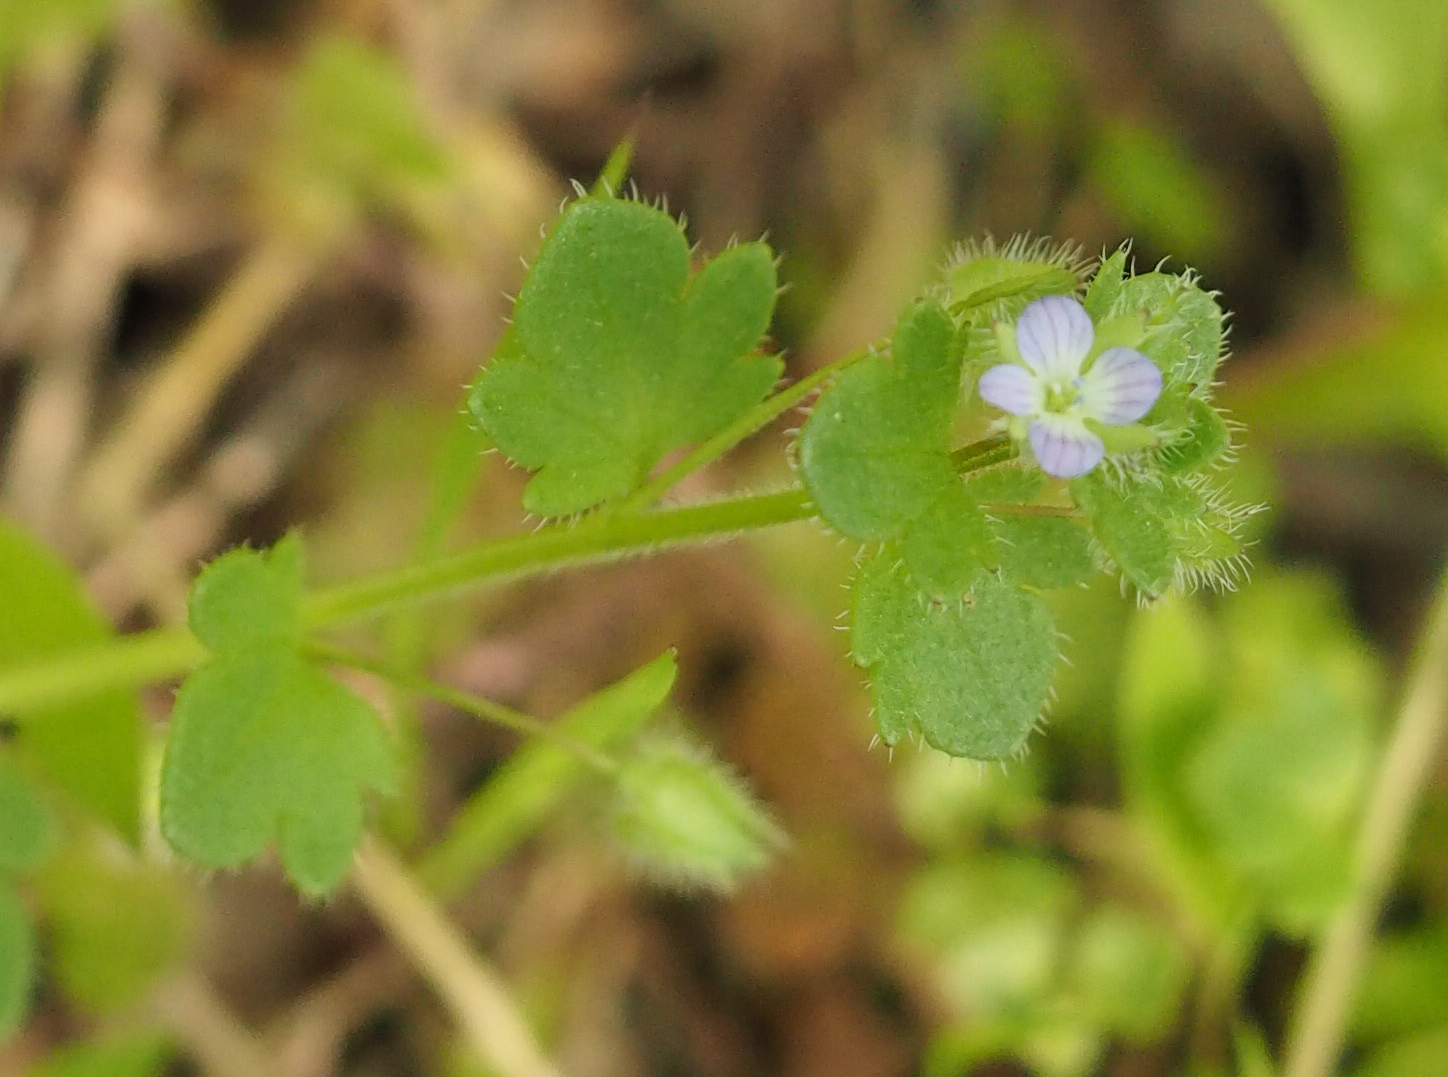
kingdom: Plantae
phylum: Tracheophyta
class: Magnoliopsida
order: Lamiales
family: Plantaginaceae
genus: Veronica
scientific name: Veronica hederifolia
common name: Ivy-leaved speedwell
